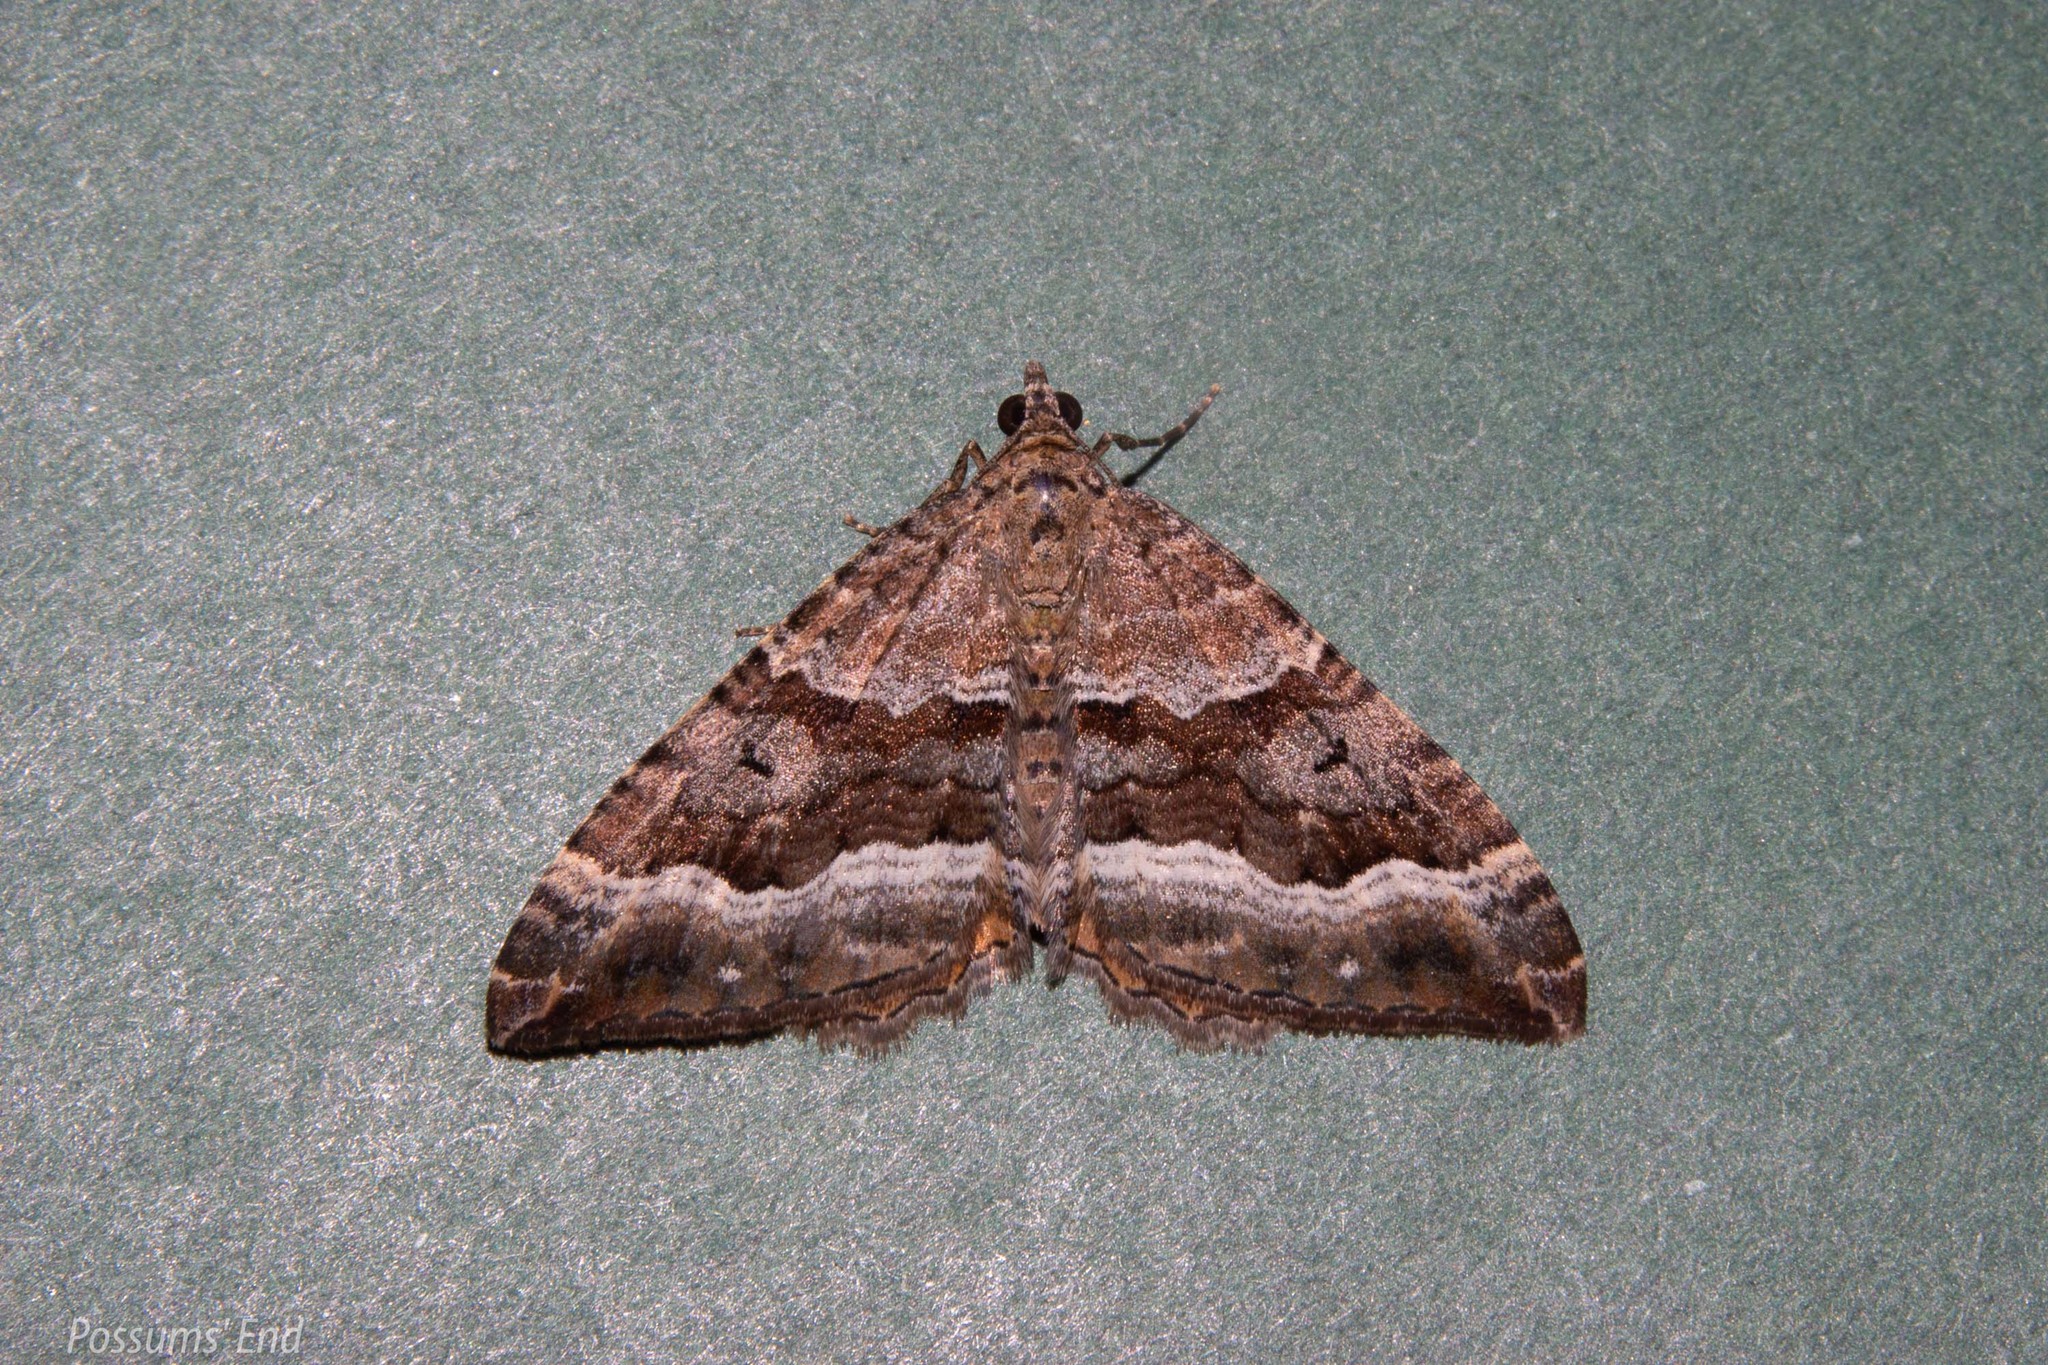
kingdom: Animalia
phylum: Arthropoda
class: Insecta
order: Lepidoptera
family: Geometridae
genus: Hydriomena
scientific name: Hydriomena deltoidata
